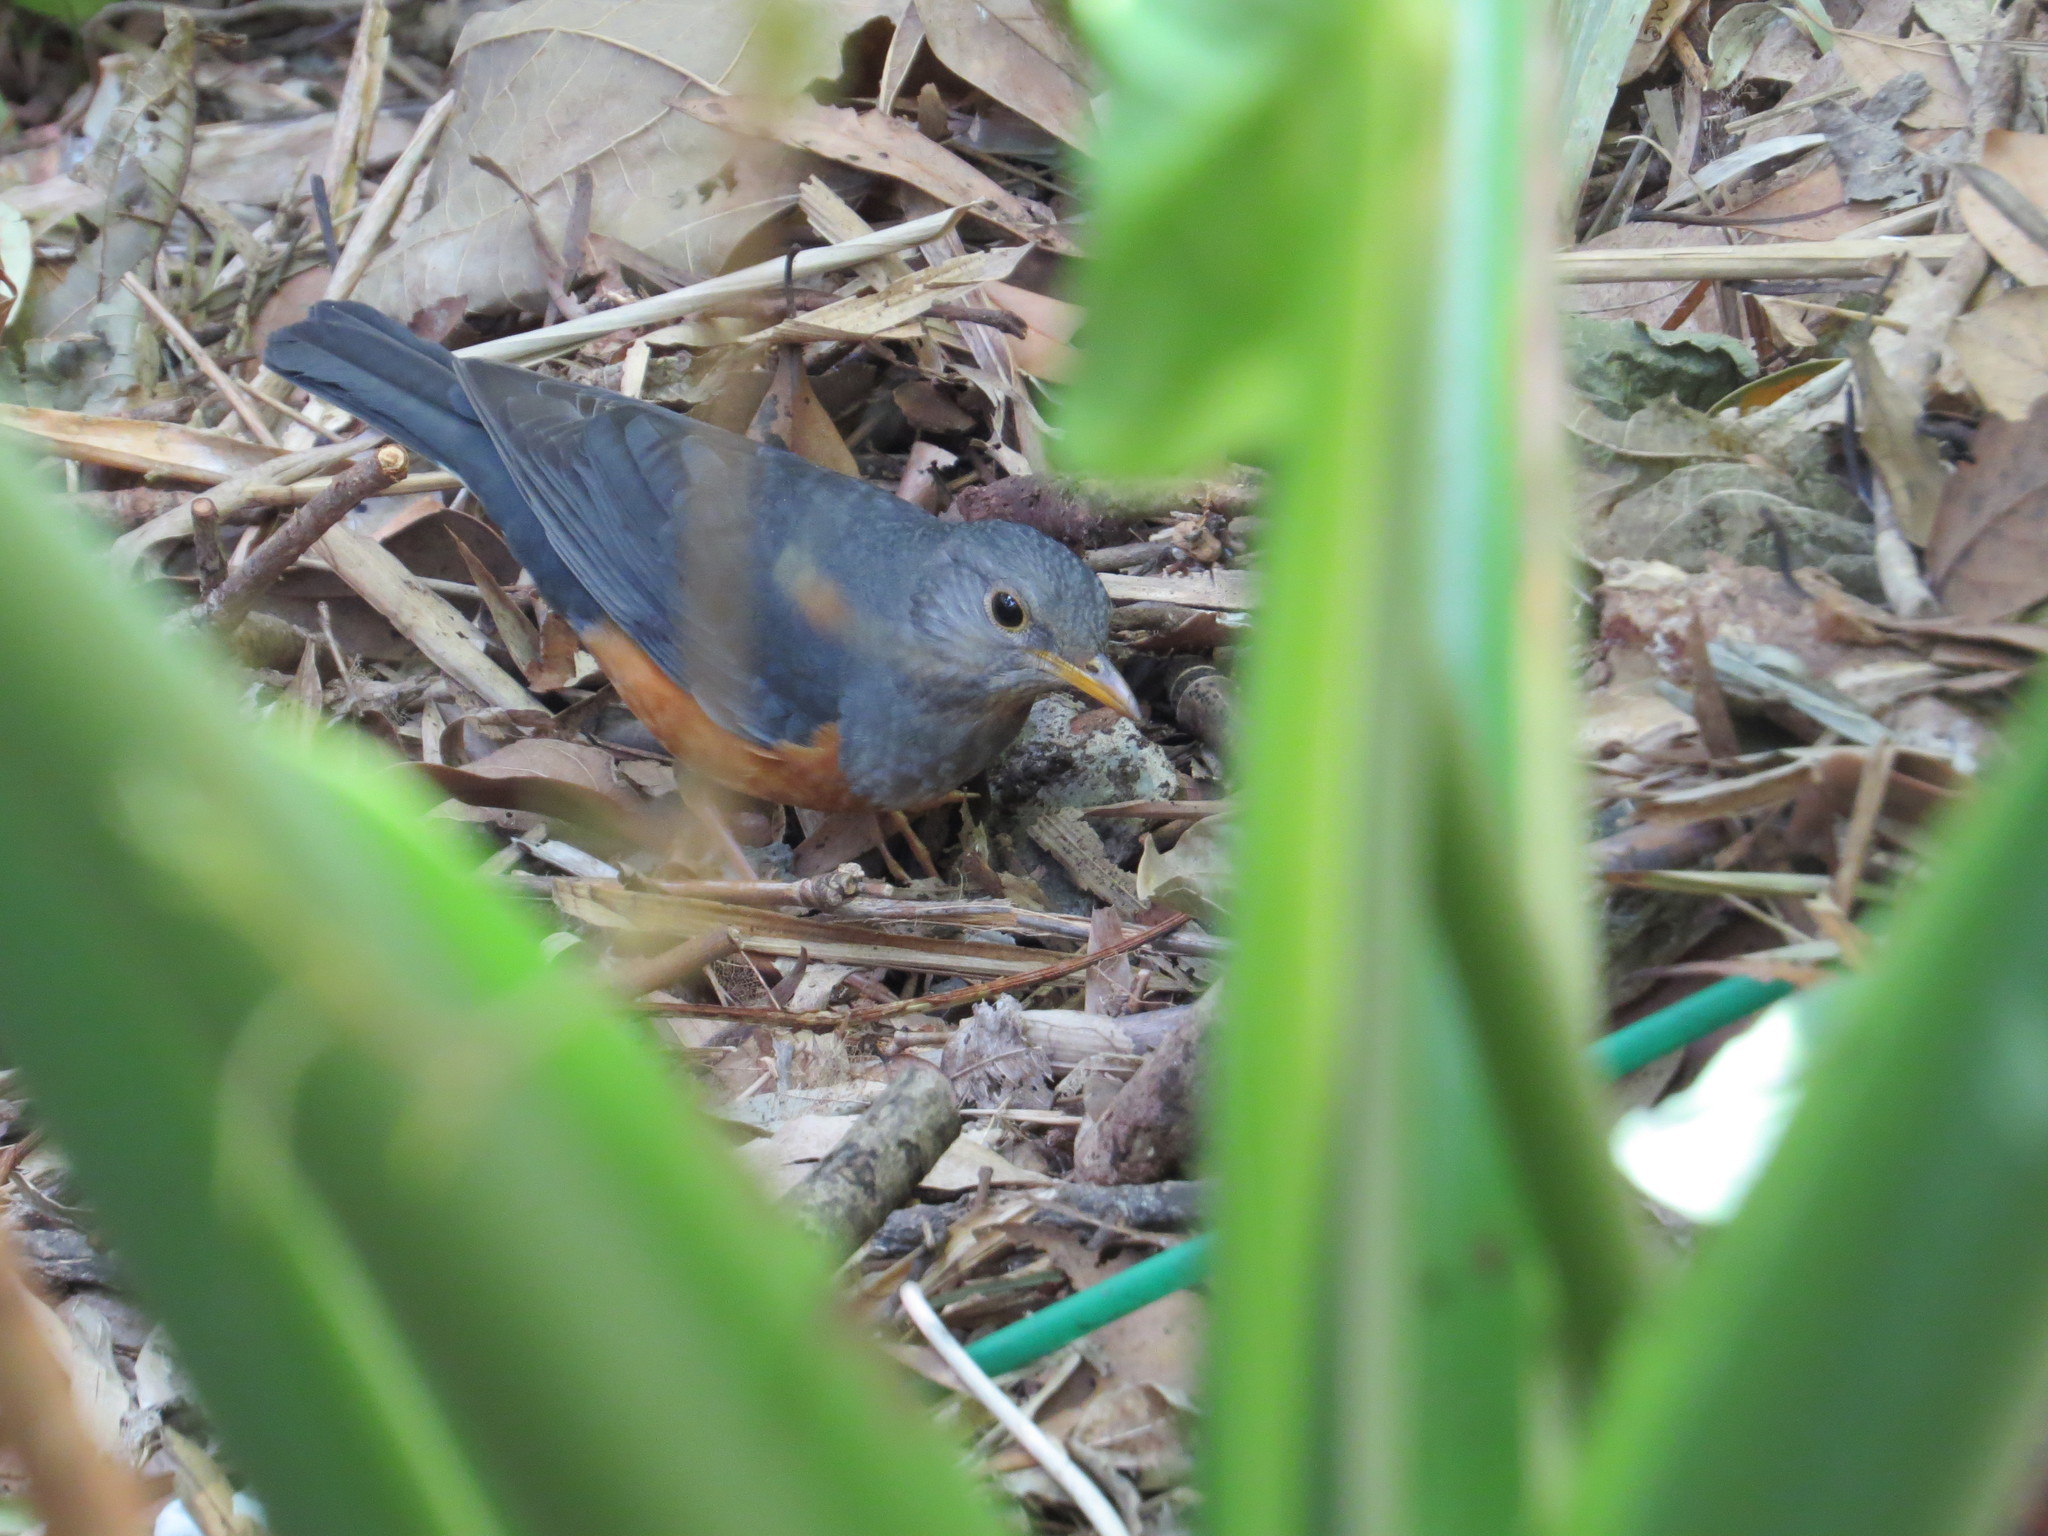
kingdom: Animalia
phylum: Chordata
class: Aves
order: Passeriformes
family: Turdidae
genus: Turdus
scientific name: Turdus hortulorum
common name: Grey-backed thrush
